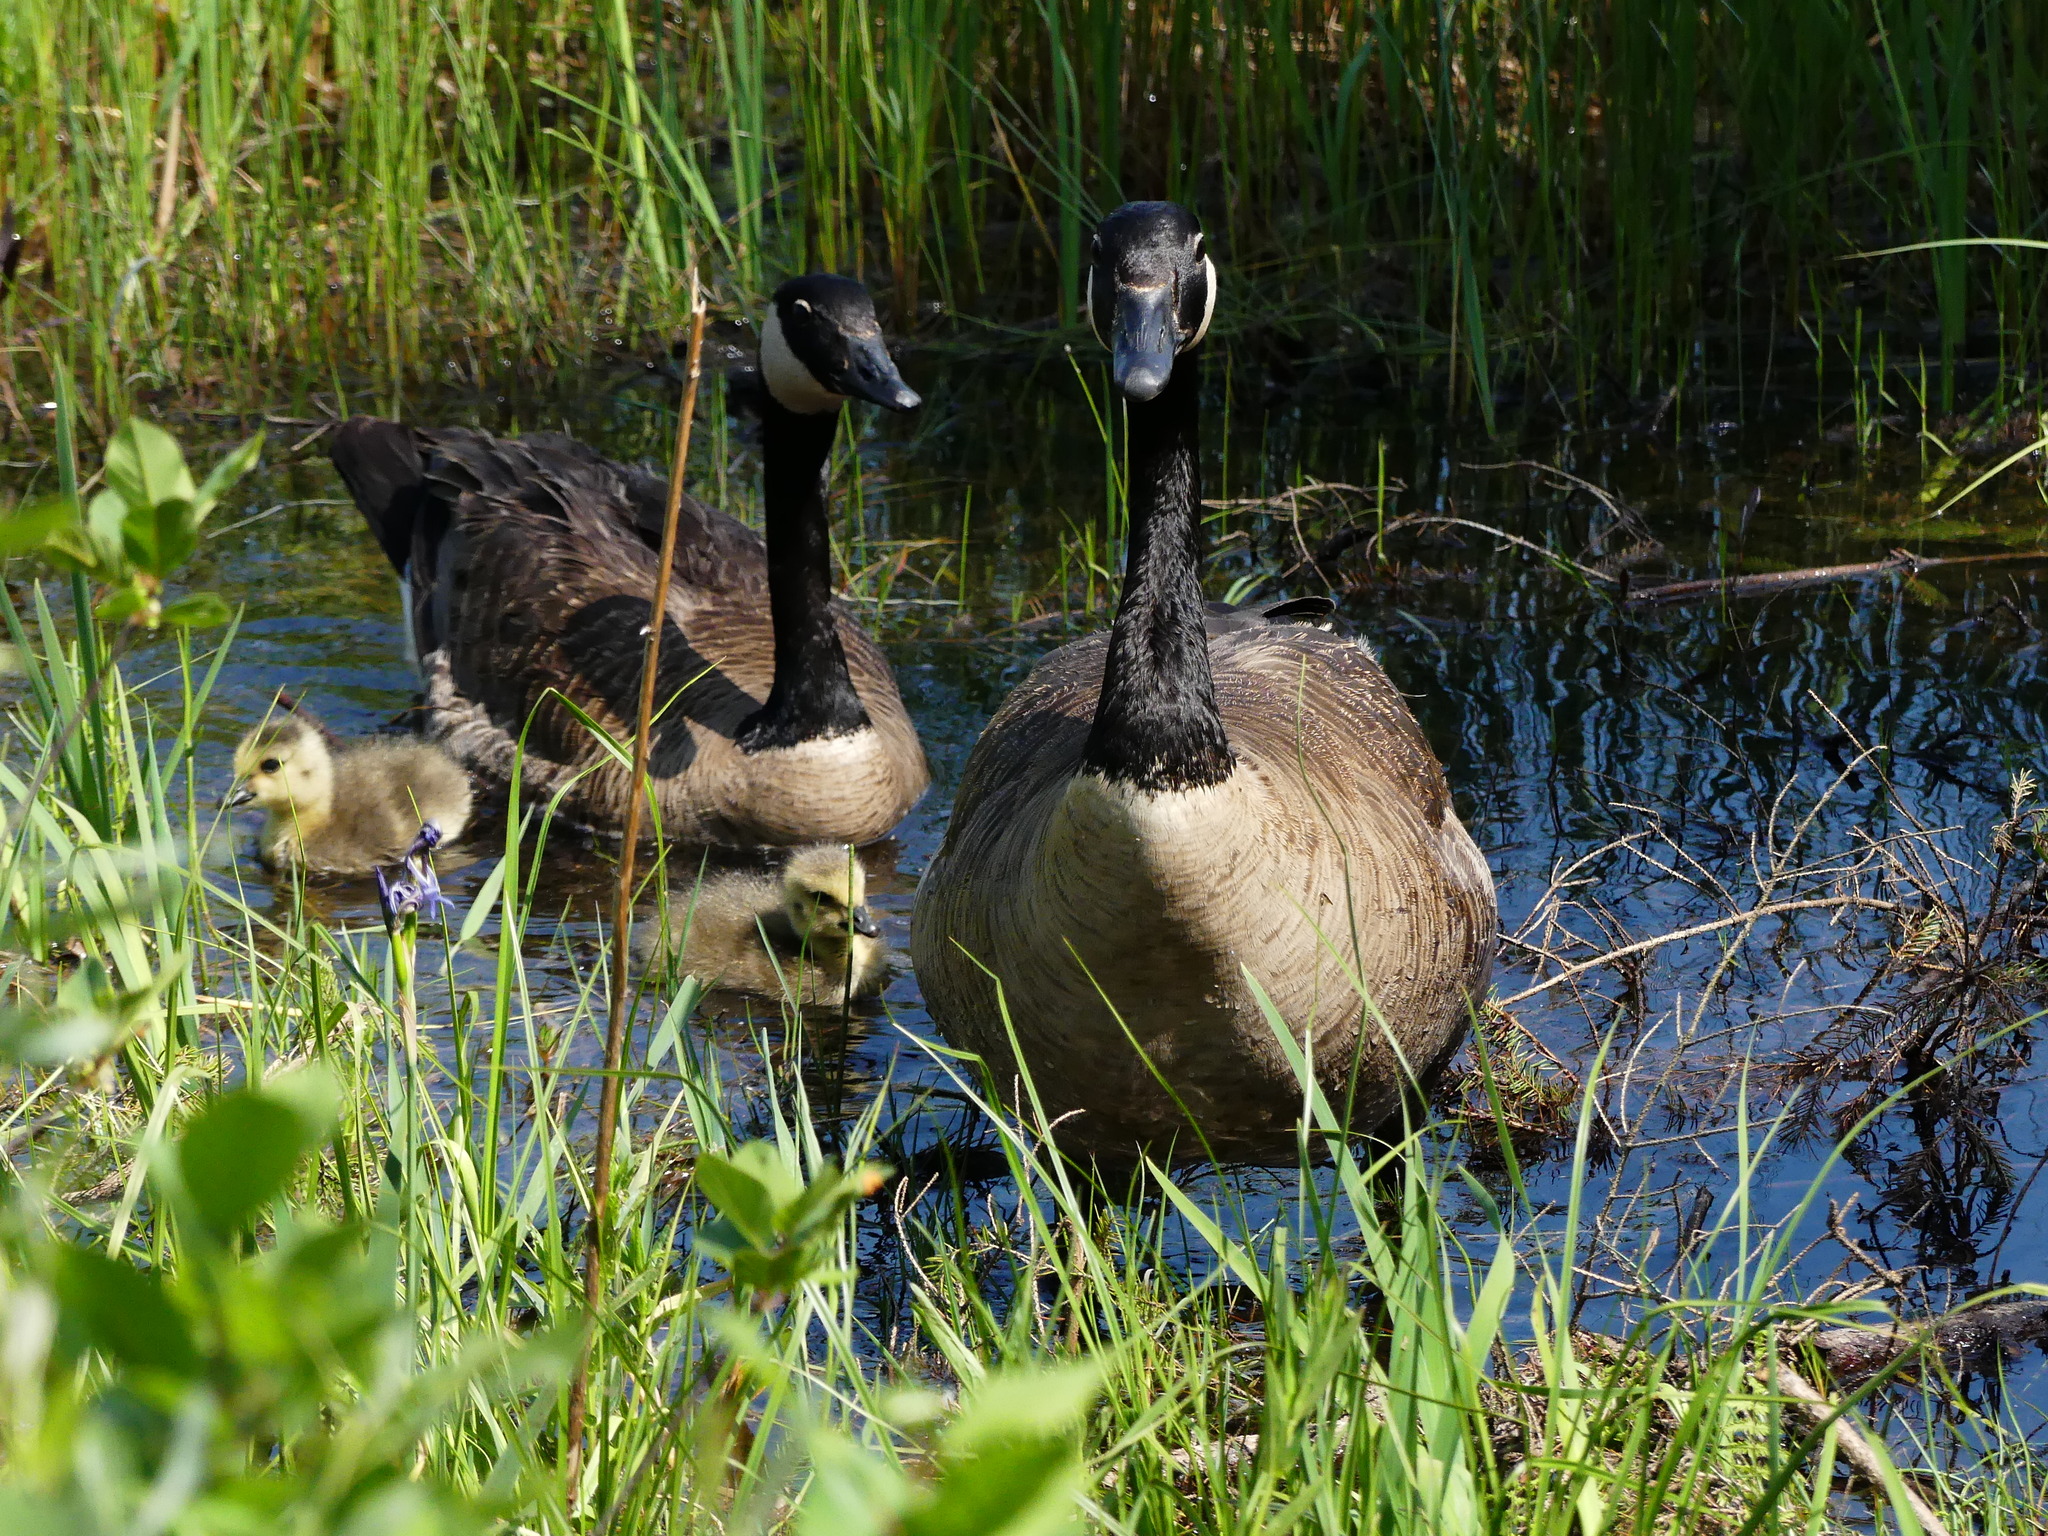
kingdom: Animalia
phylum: Chordata
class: Aves
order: Anseriformes
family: Anatidae
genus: Branta
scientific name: Branta canadensis
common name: Canada goose
